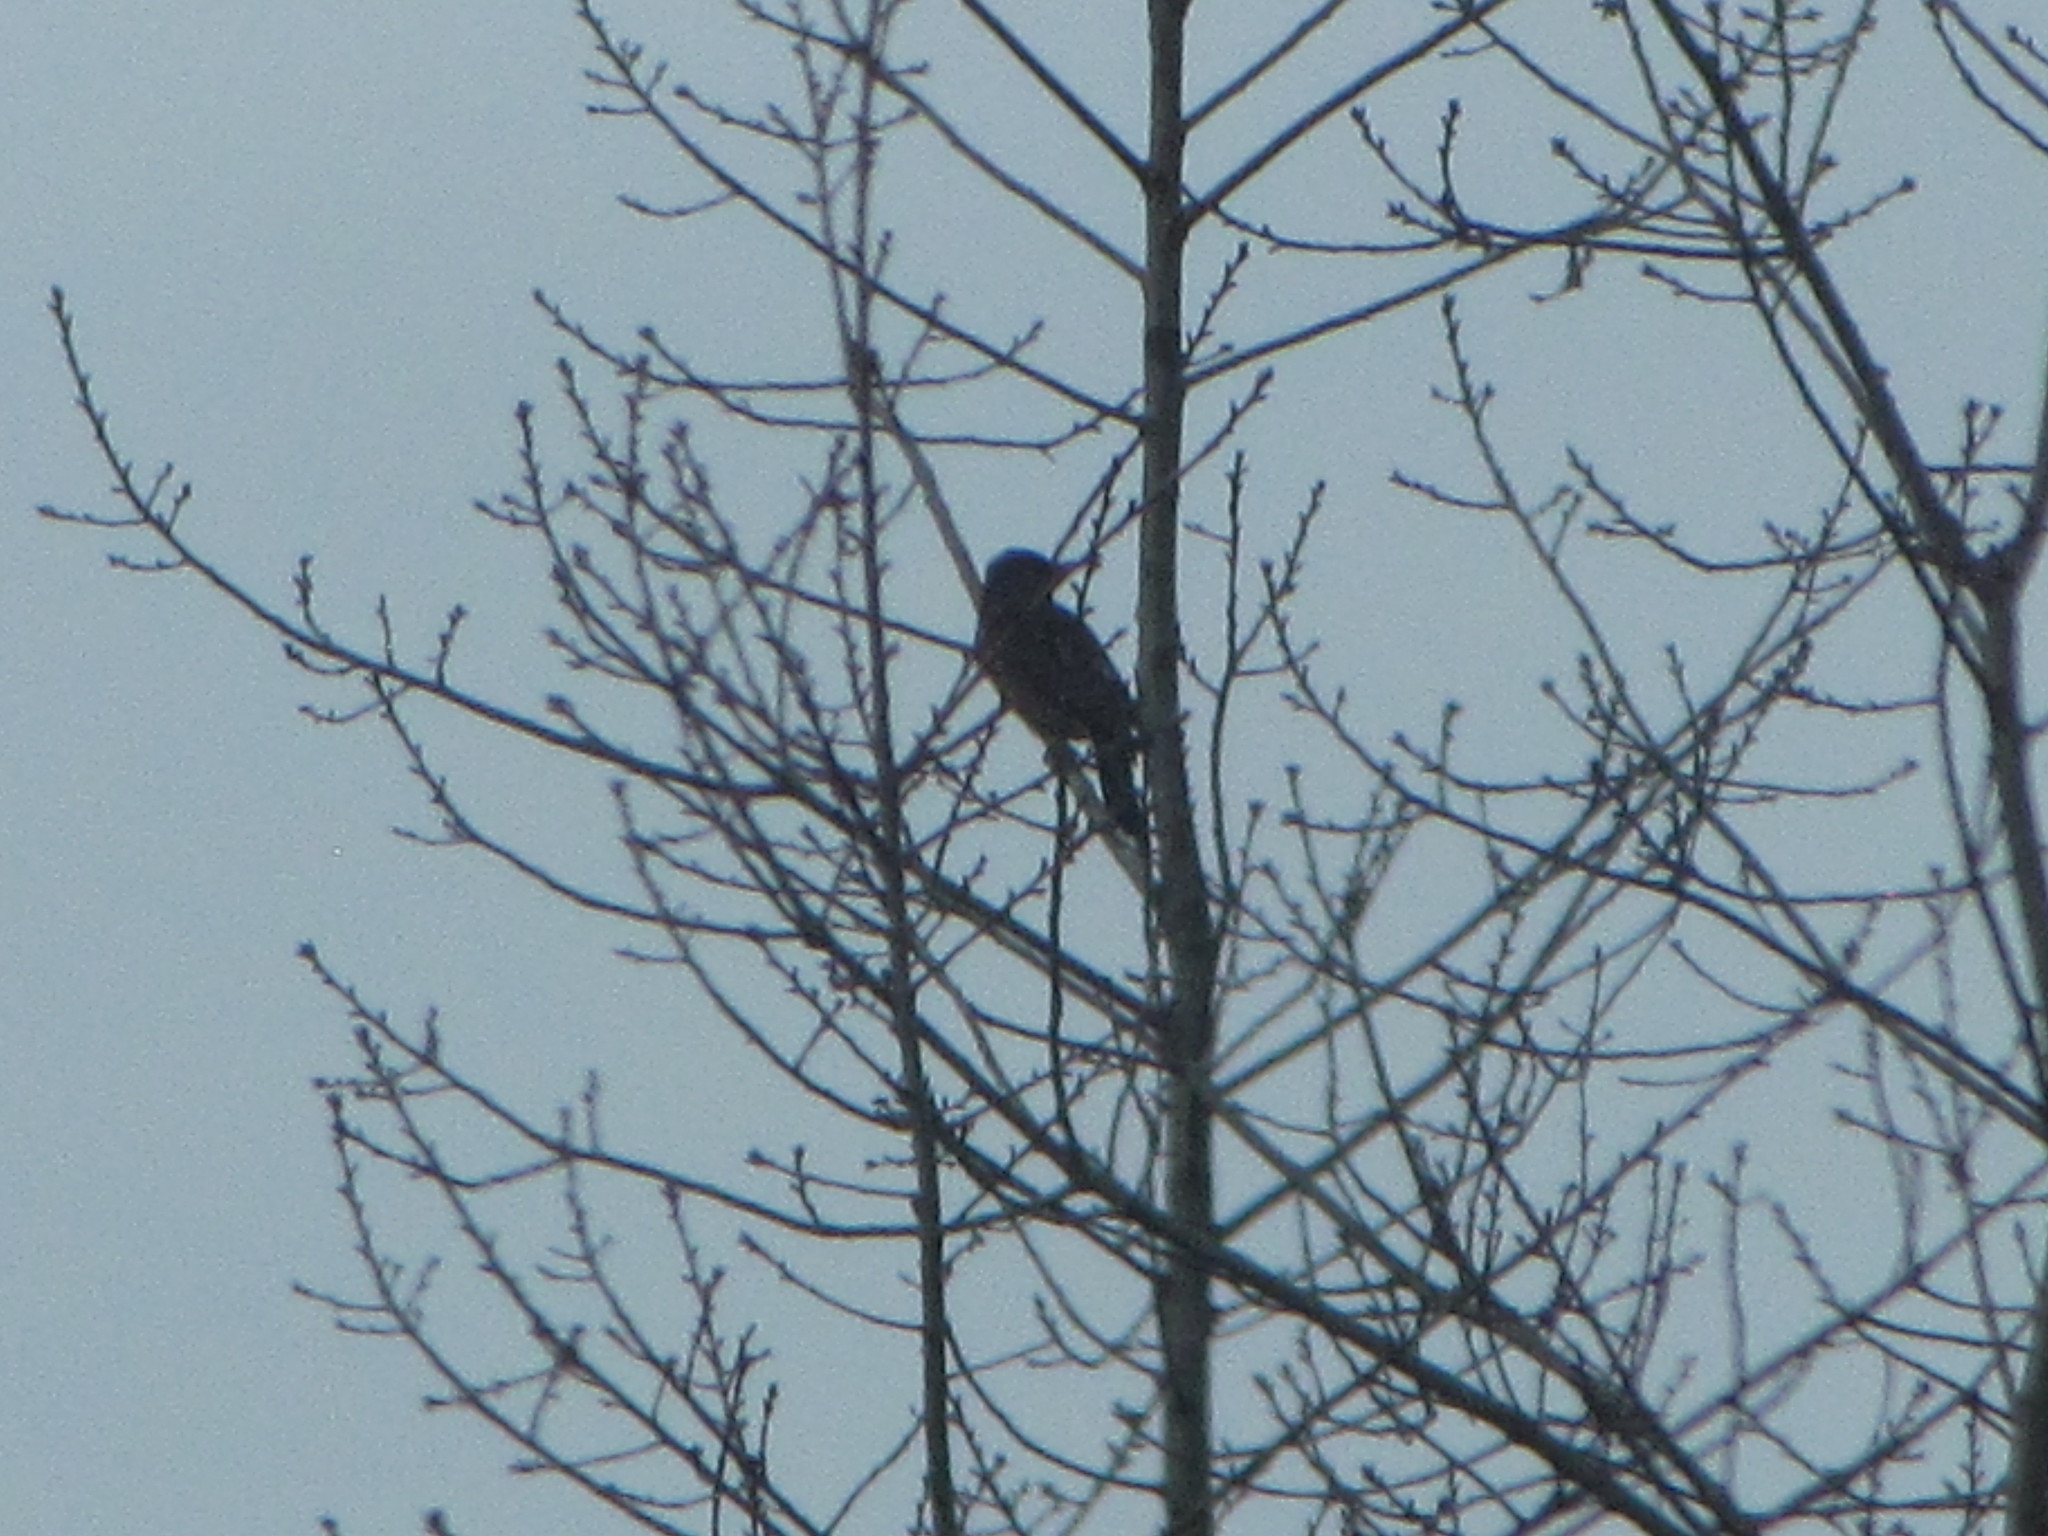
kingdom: Animalia
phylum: Chordata
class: Aves
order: Piciformes
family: Picidae
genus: Colaptes
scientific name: Colaptes auratus
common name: Northern flicker
